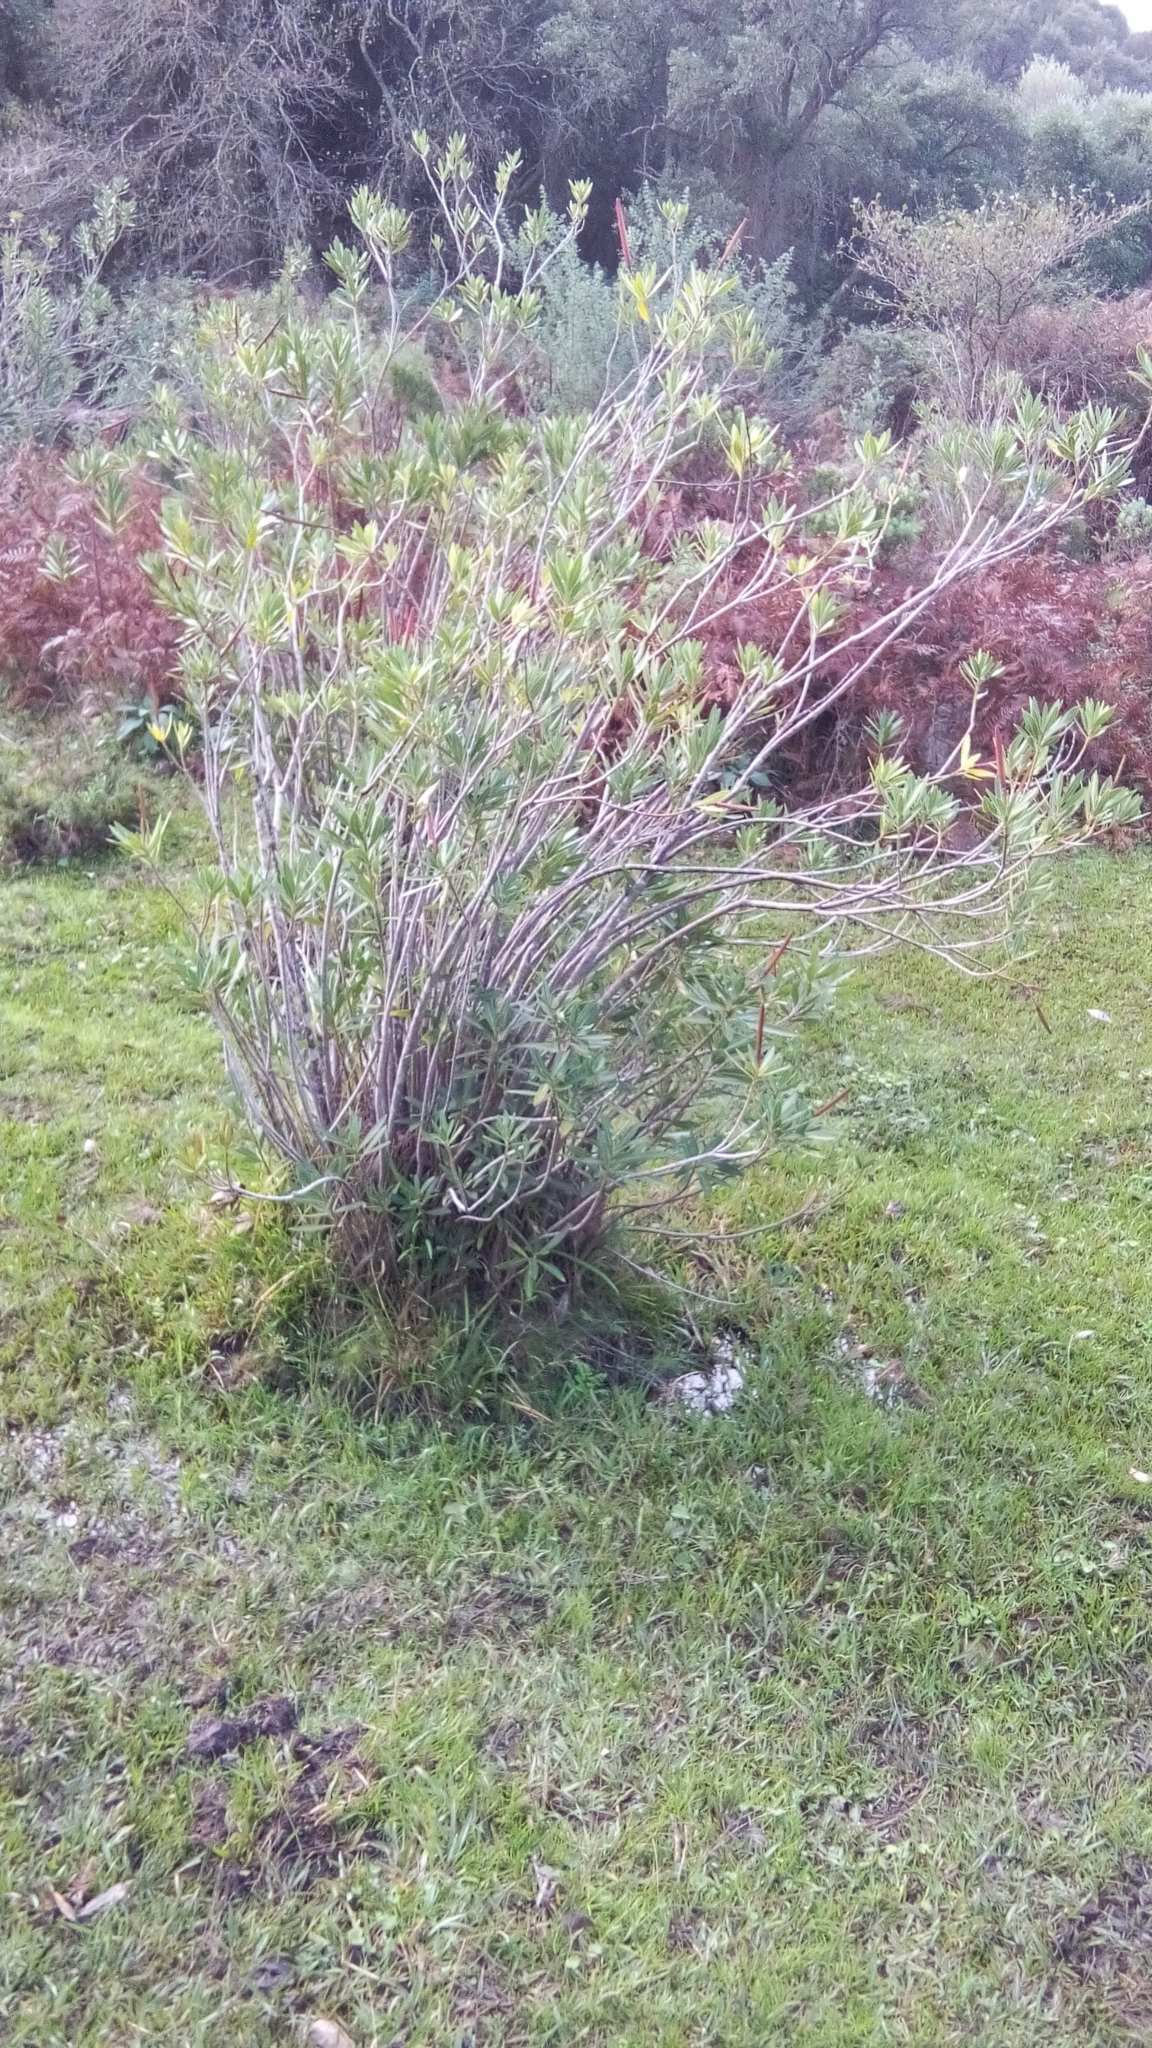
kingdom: Plantae
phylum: Tracheophyta
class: Magnoliopsida
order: Gentianales
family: Apocynaceae
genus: Nerium
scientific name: Nerium oleander
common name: Oleander
